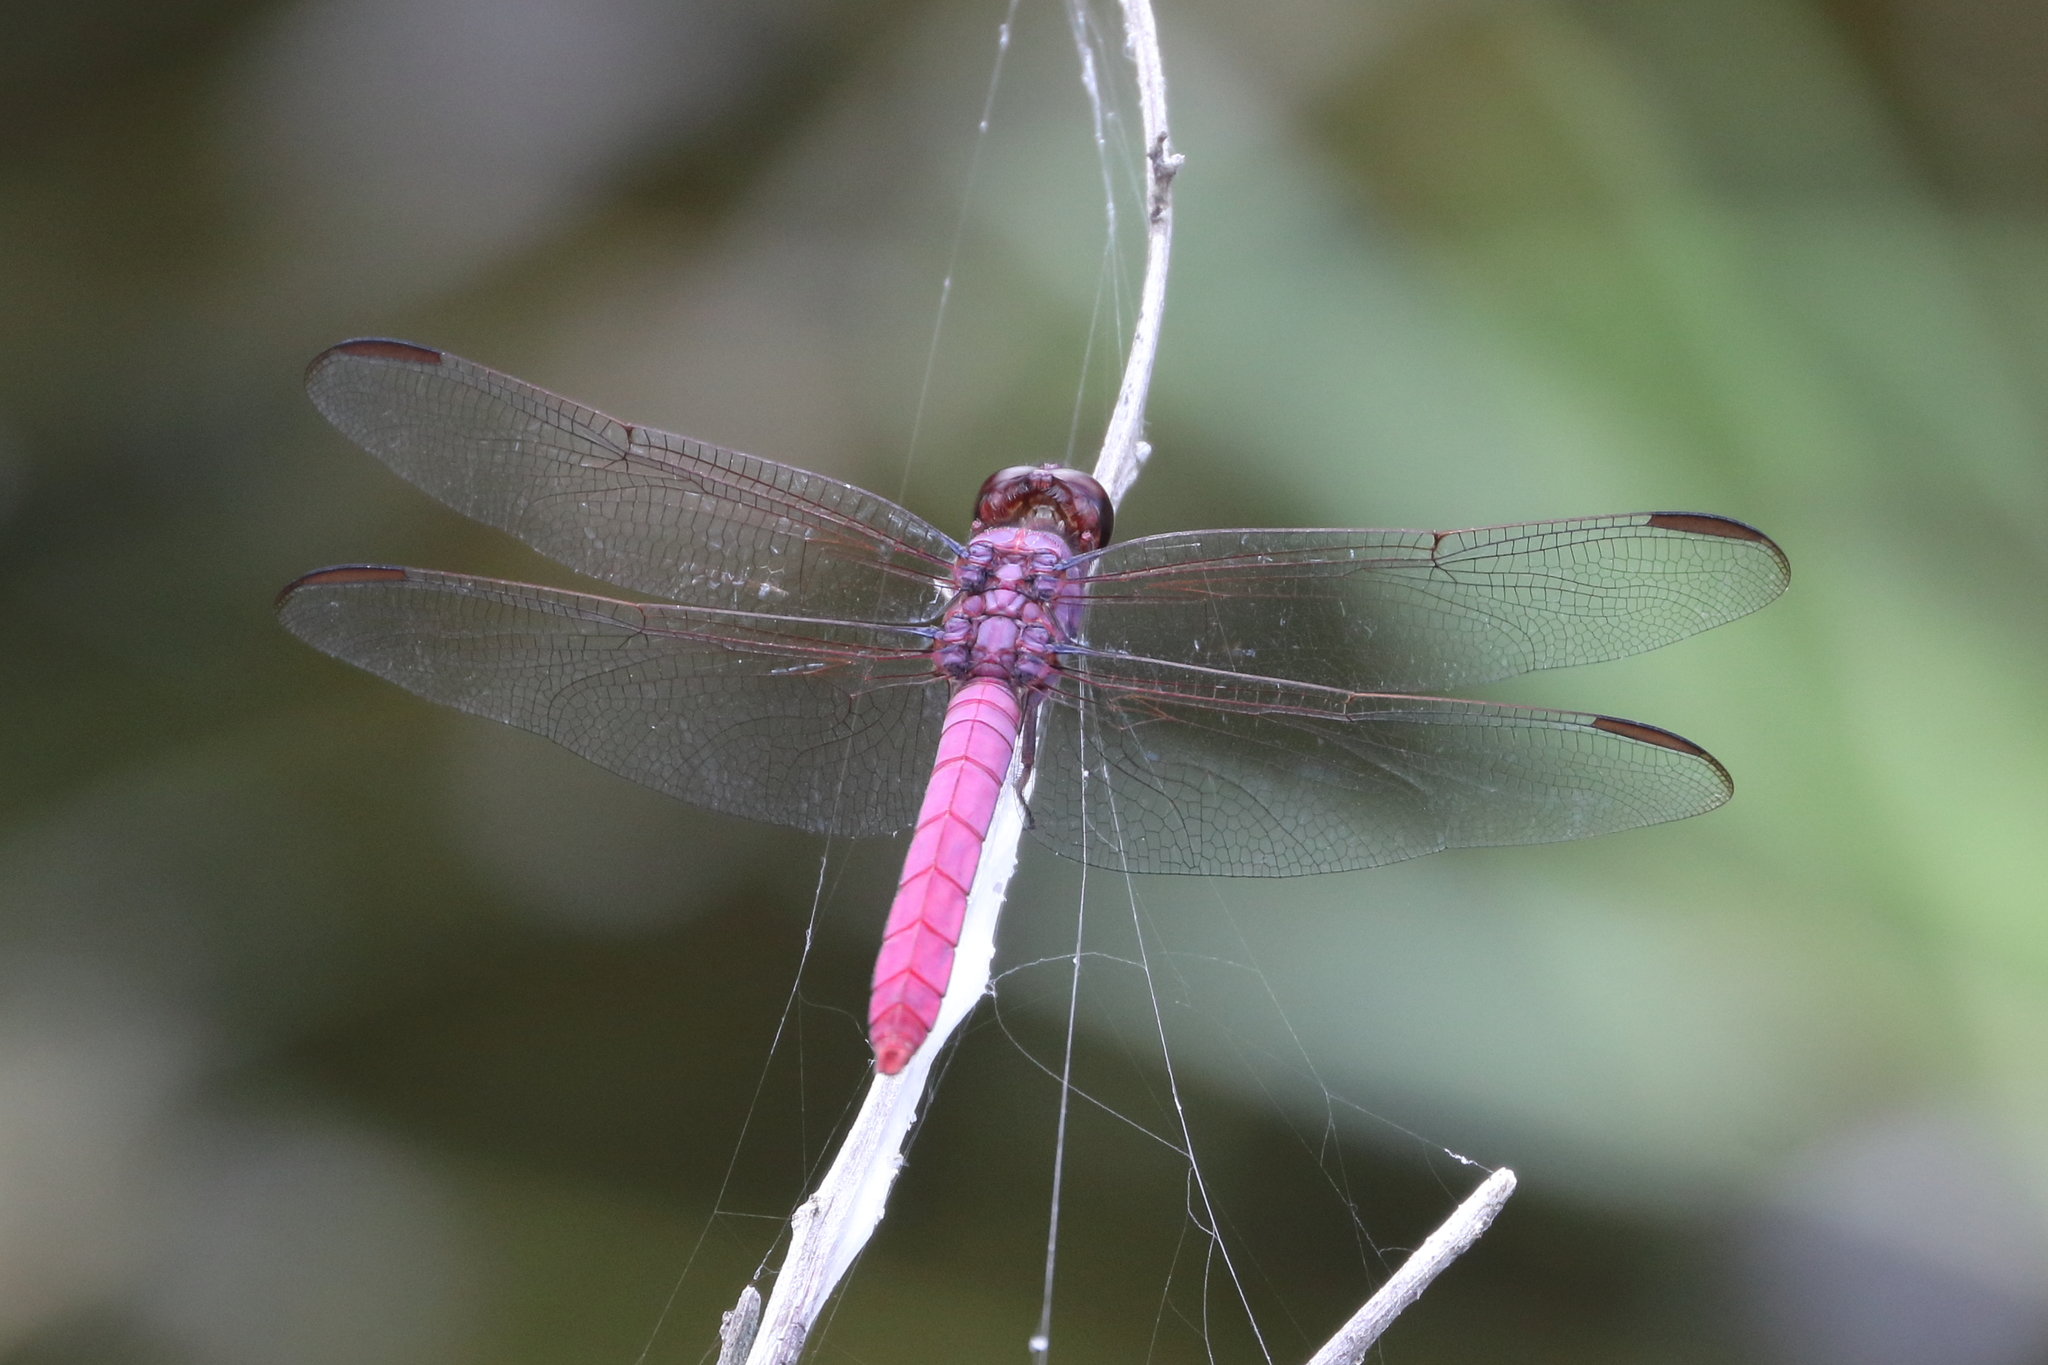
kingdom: Animalia
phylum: Arthropoda
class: Insecta
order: Odonata
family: Libellulidae
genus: Orthemis
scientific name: Orthemis ferruginea
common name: Roseate skimmer
